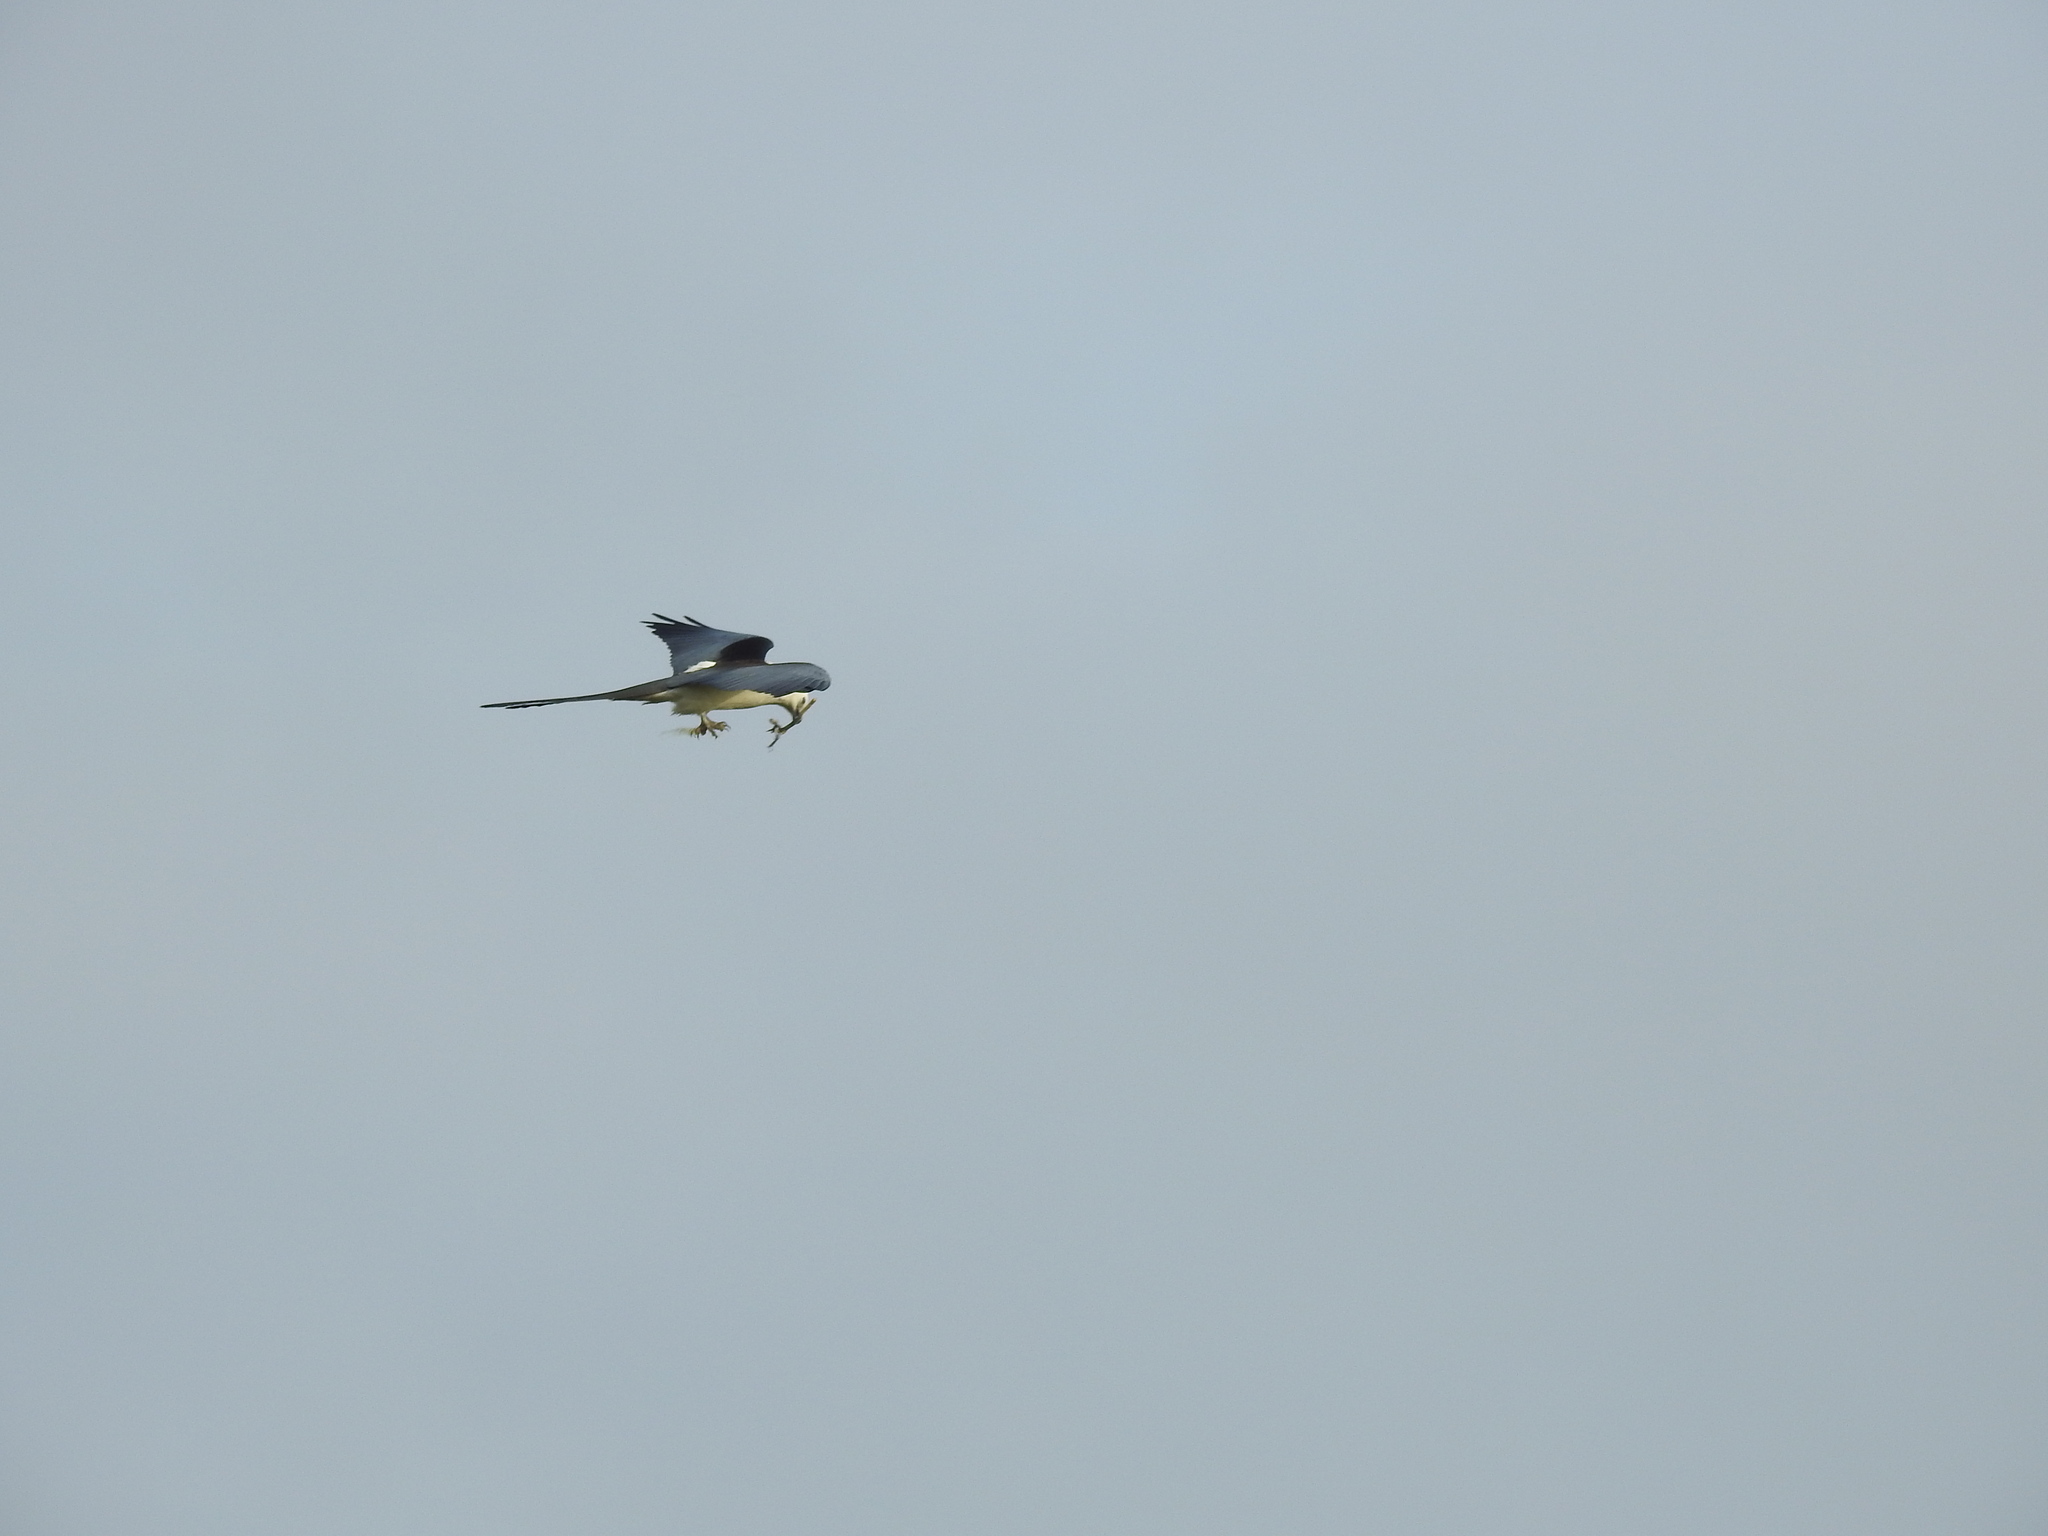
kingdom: Animalia
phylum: Chordata
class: Aves
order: Accipitriformes
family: Accipitridae
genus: Elanoides
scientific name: Elanoides forficatus
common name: Swallow-tailed kite
